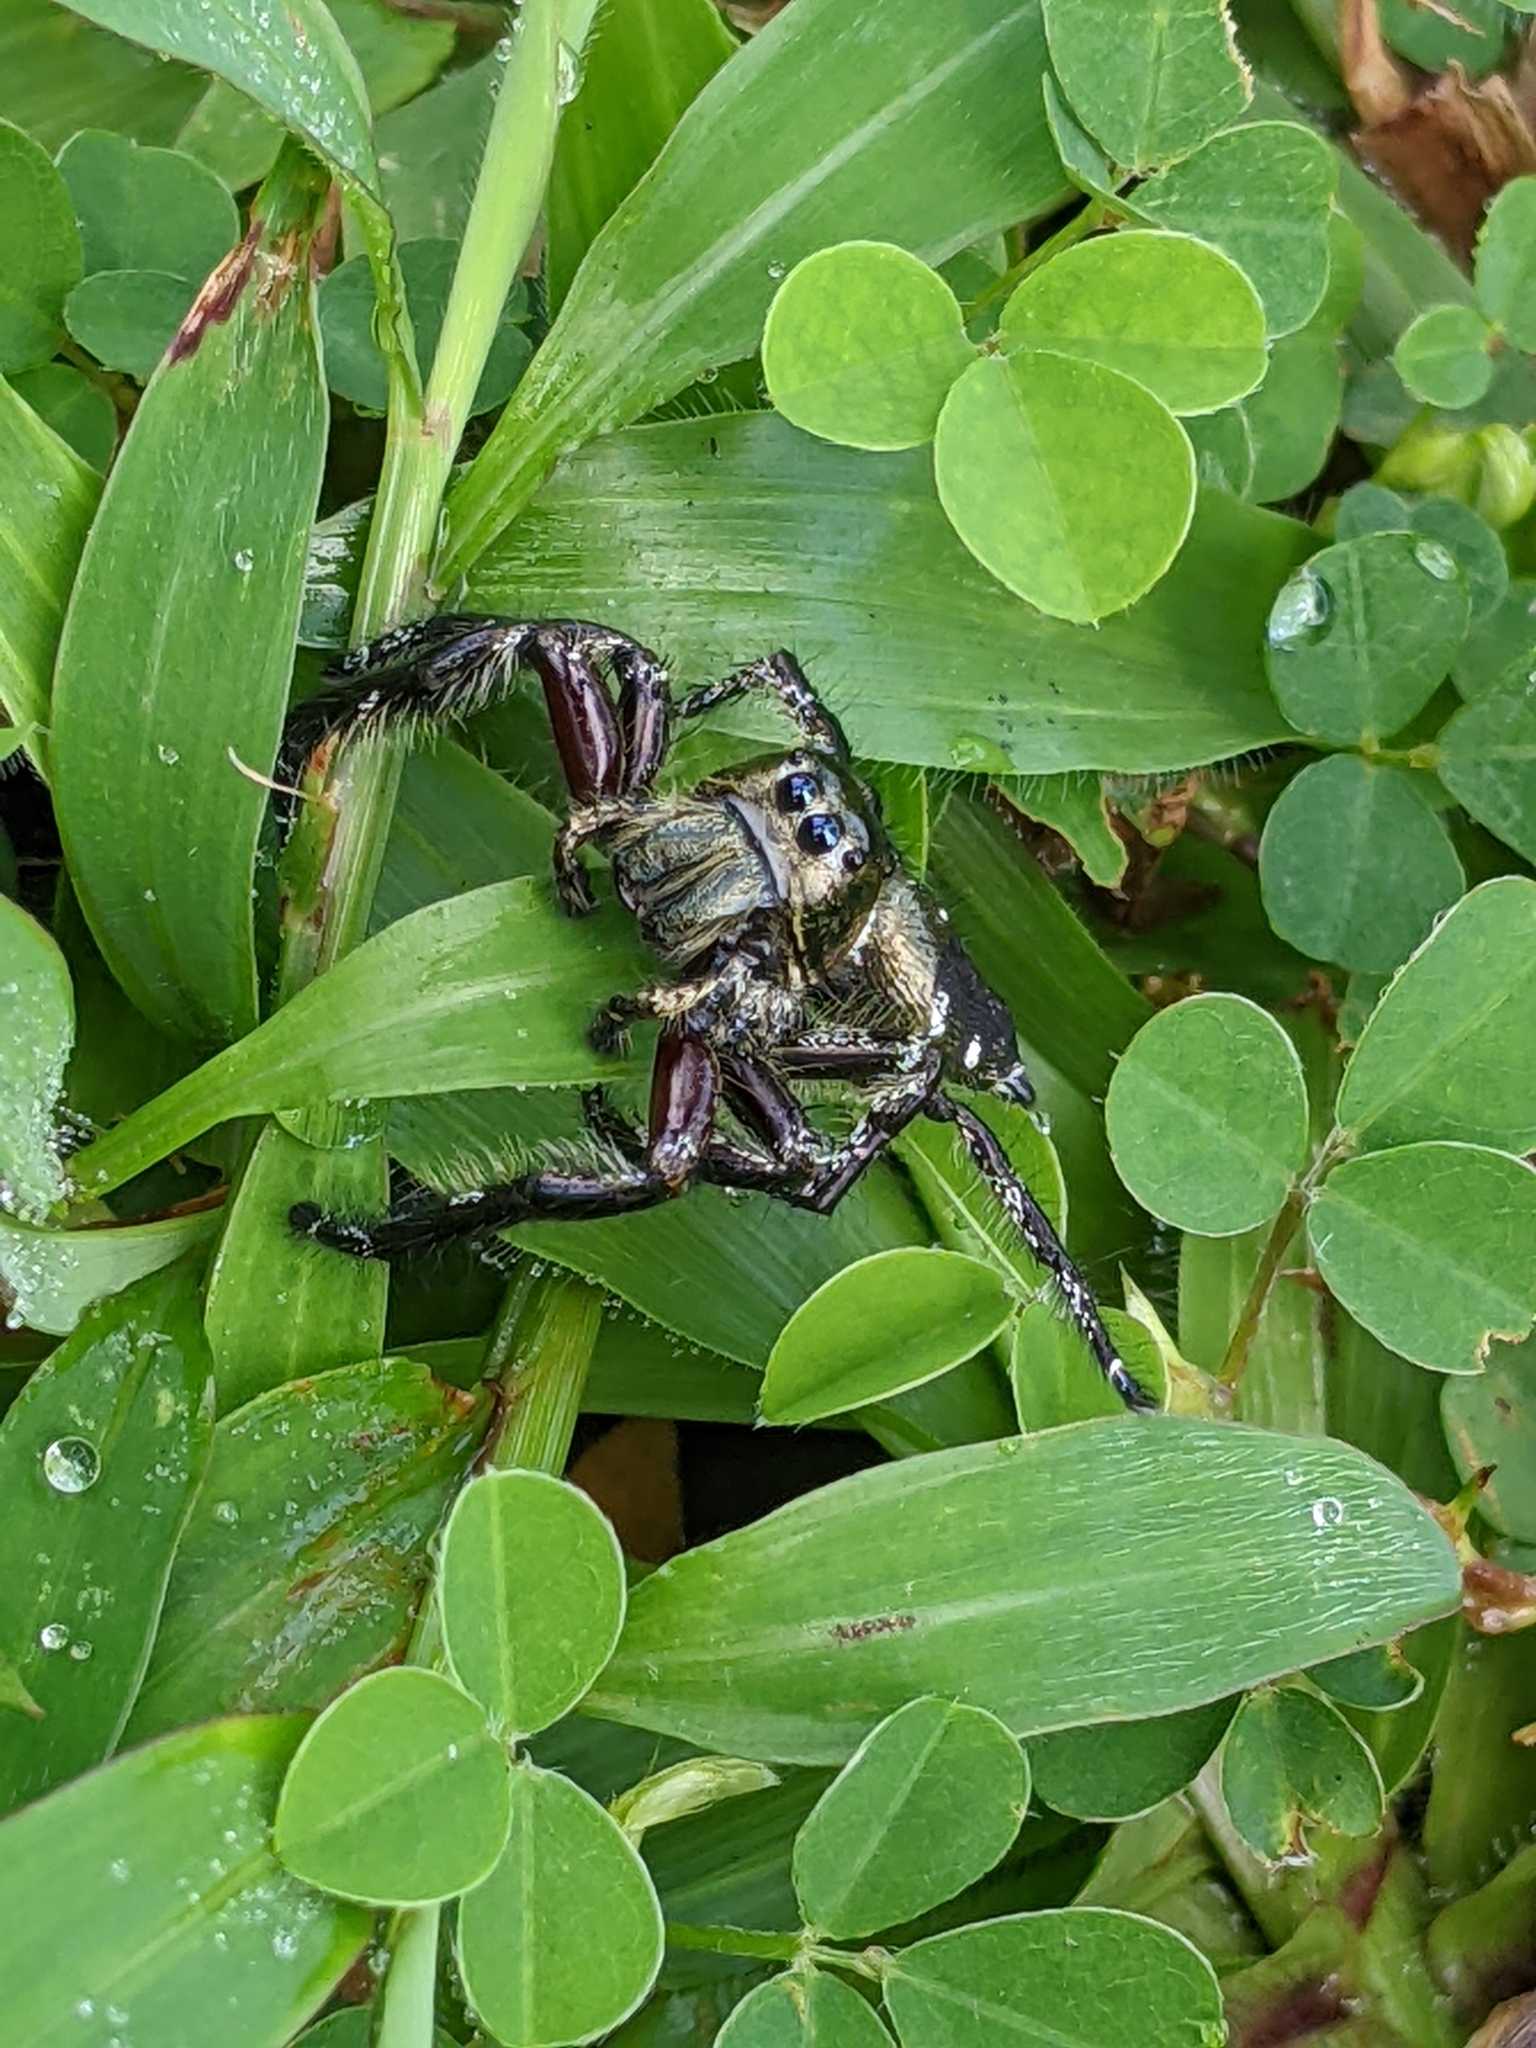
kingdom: Animalia
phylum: Arthropoda
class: Arachnida
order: Araneae
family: Salticidae
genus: Hyllus
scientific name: Hyllus diardi
